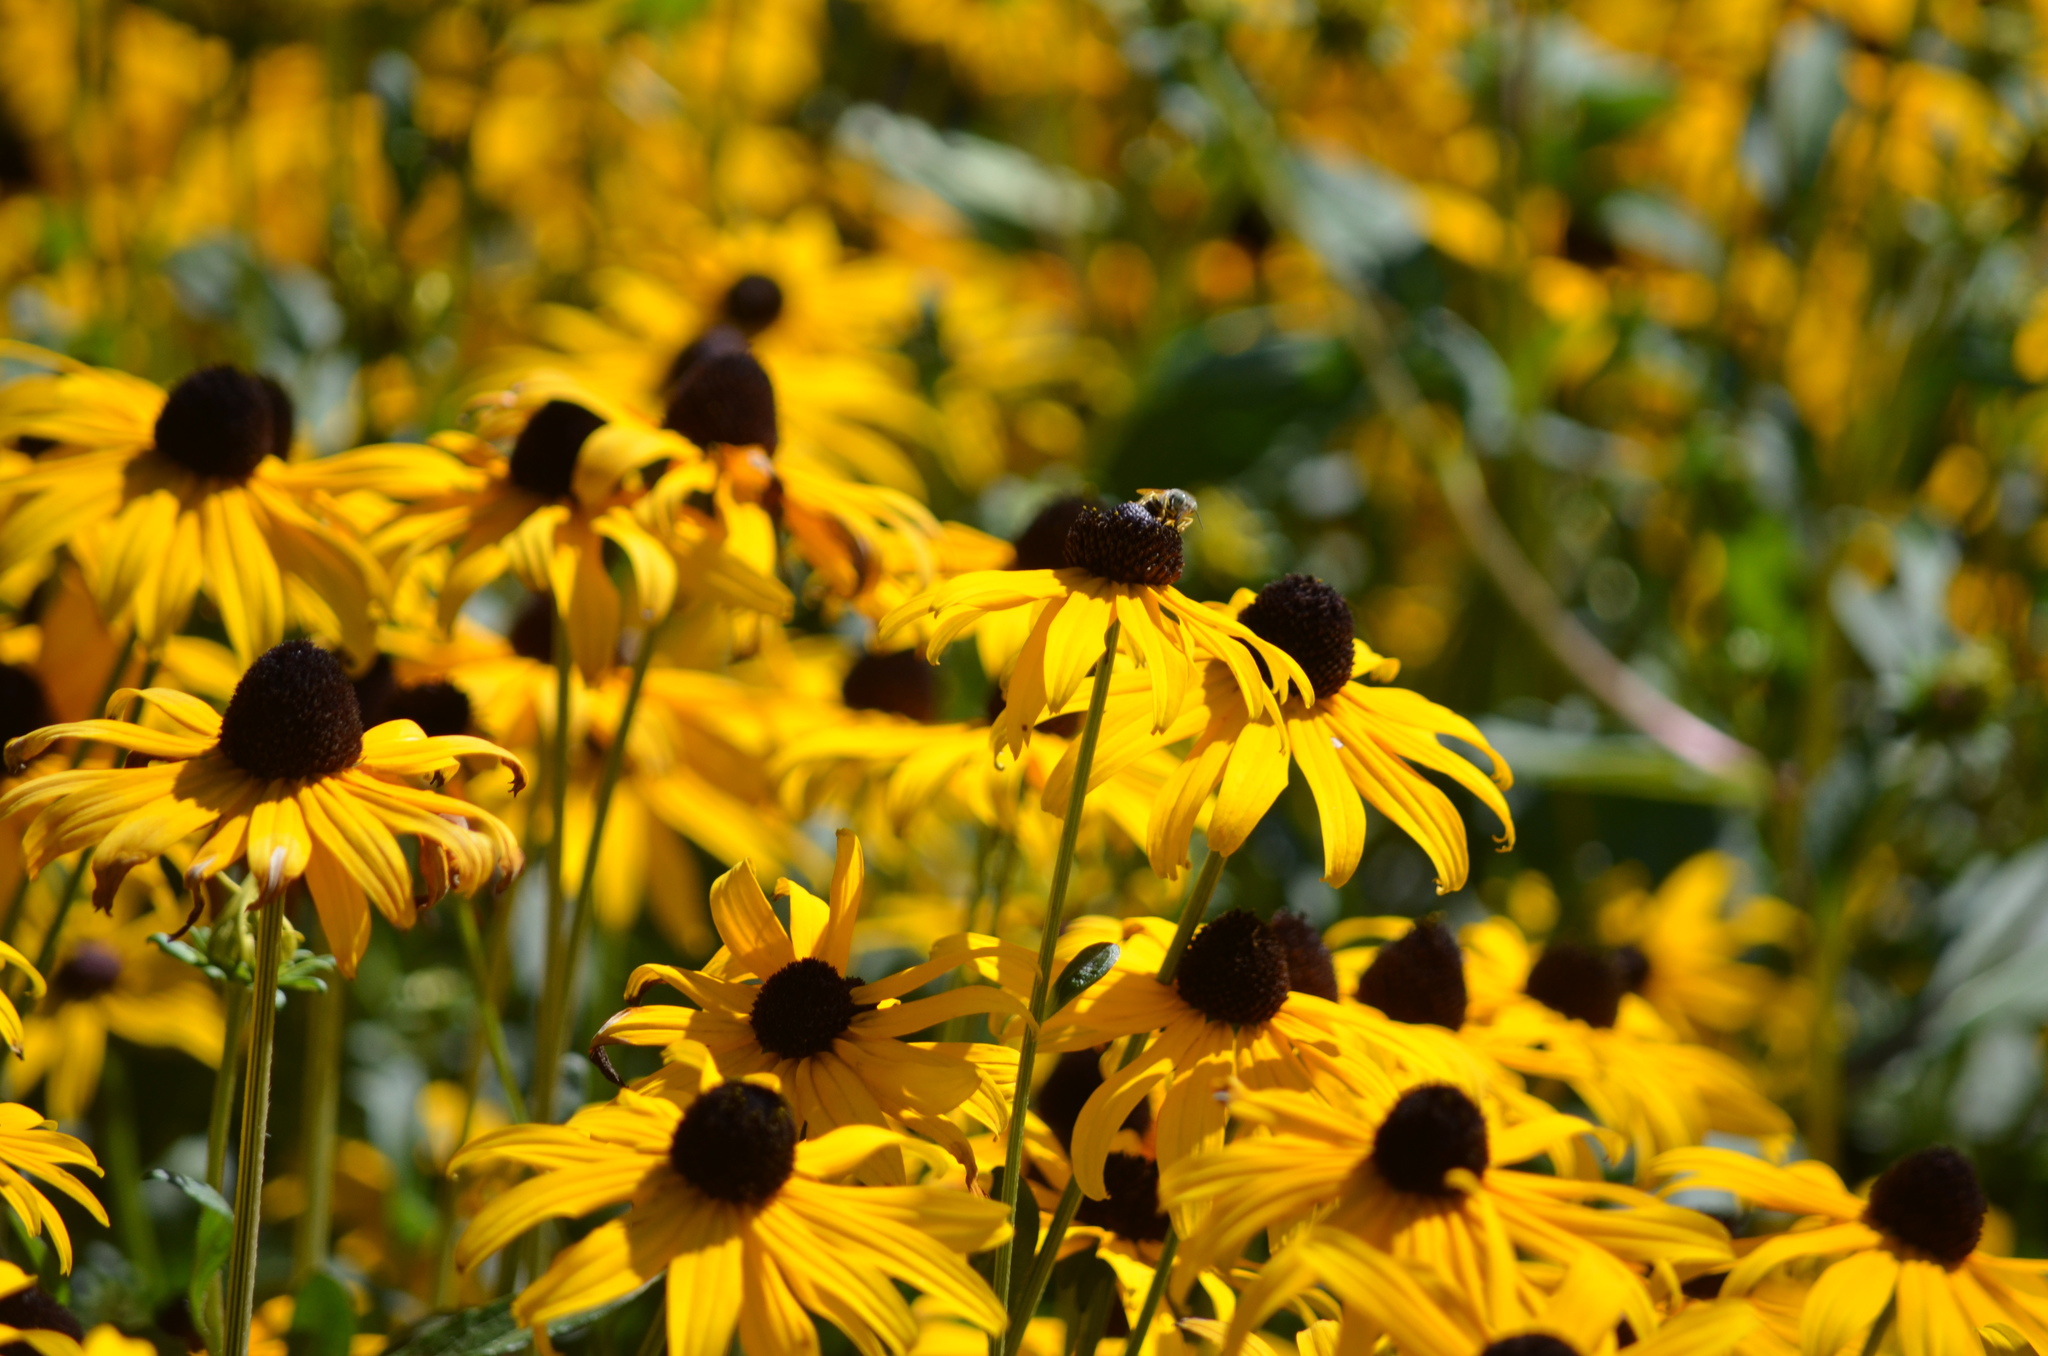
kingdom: Animalia
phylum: Arthropoda
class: Insecta
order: Hymenoptera
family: Crabronidae
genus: Bembix
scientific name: Bembix americana
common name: American sand wasp
